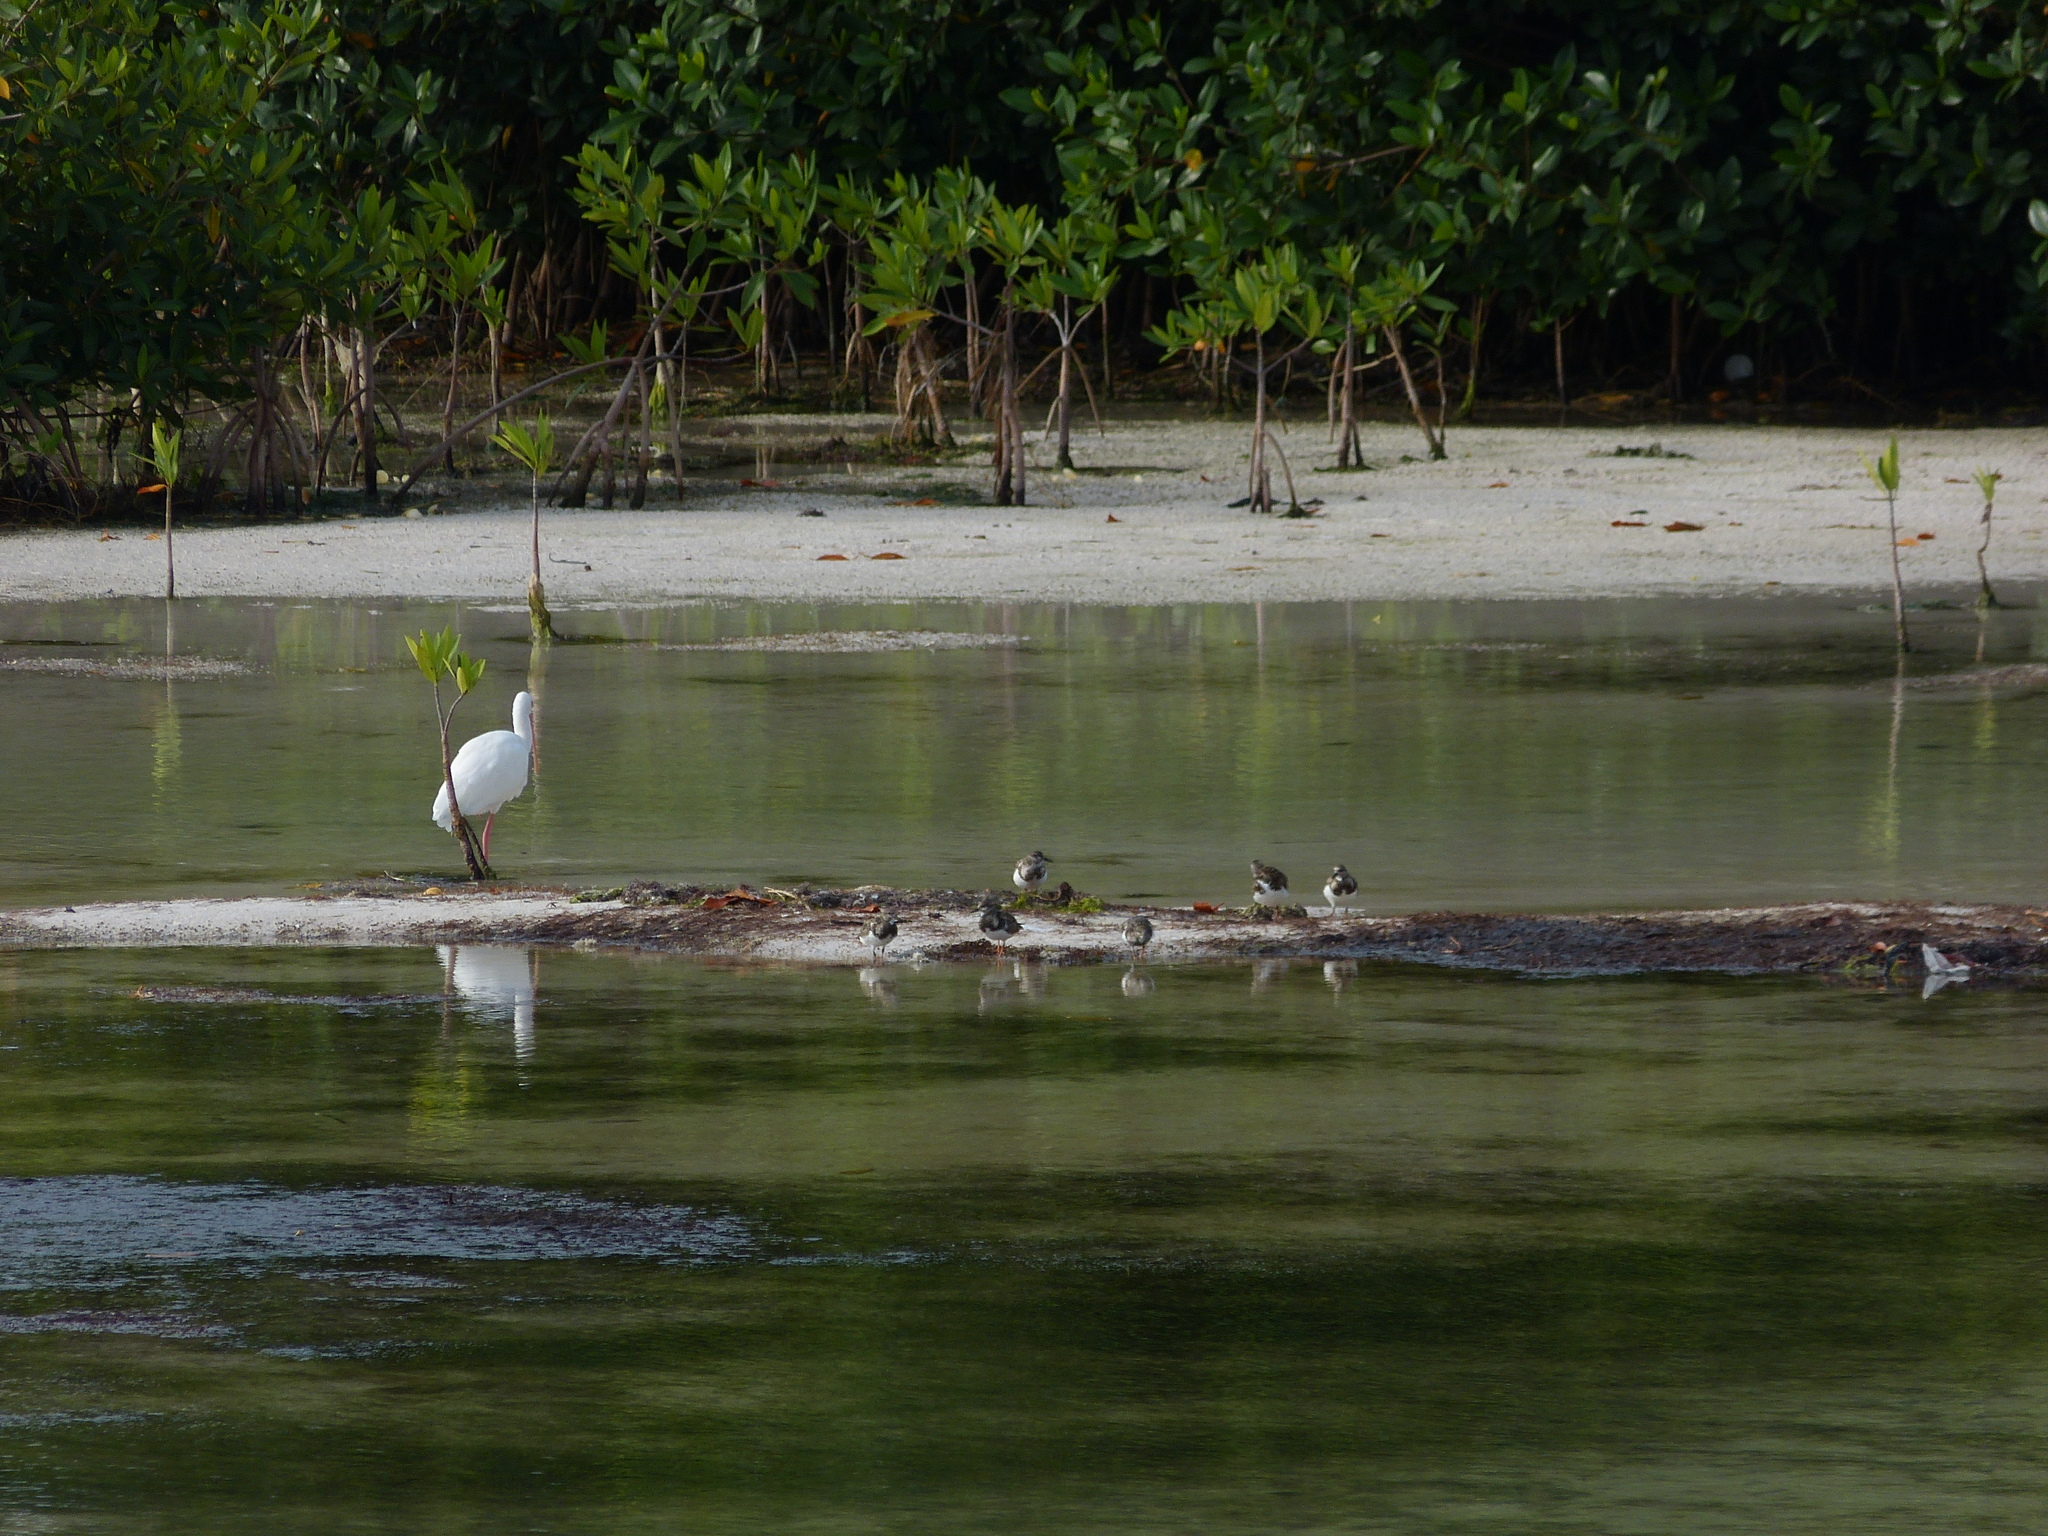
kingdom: Animalia
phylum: Chordata
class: Aves
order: Charadriiformes
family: Scolopacidae
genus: Arenaria
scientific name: Arenaria interpres
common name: Ruddy turnstone
